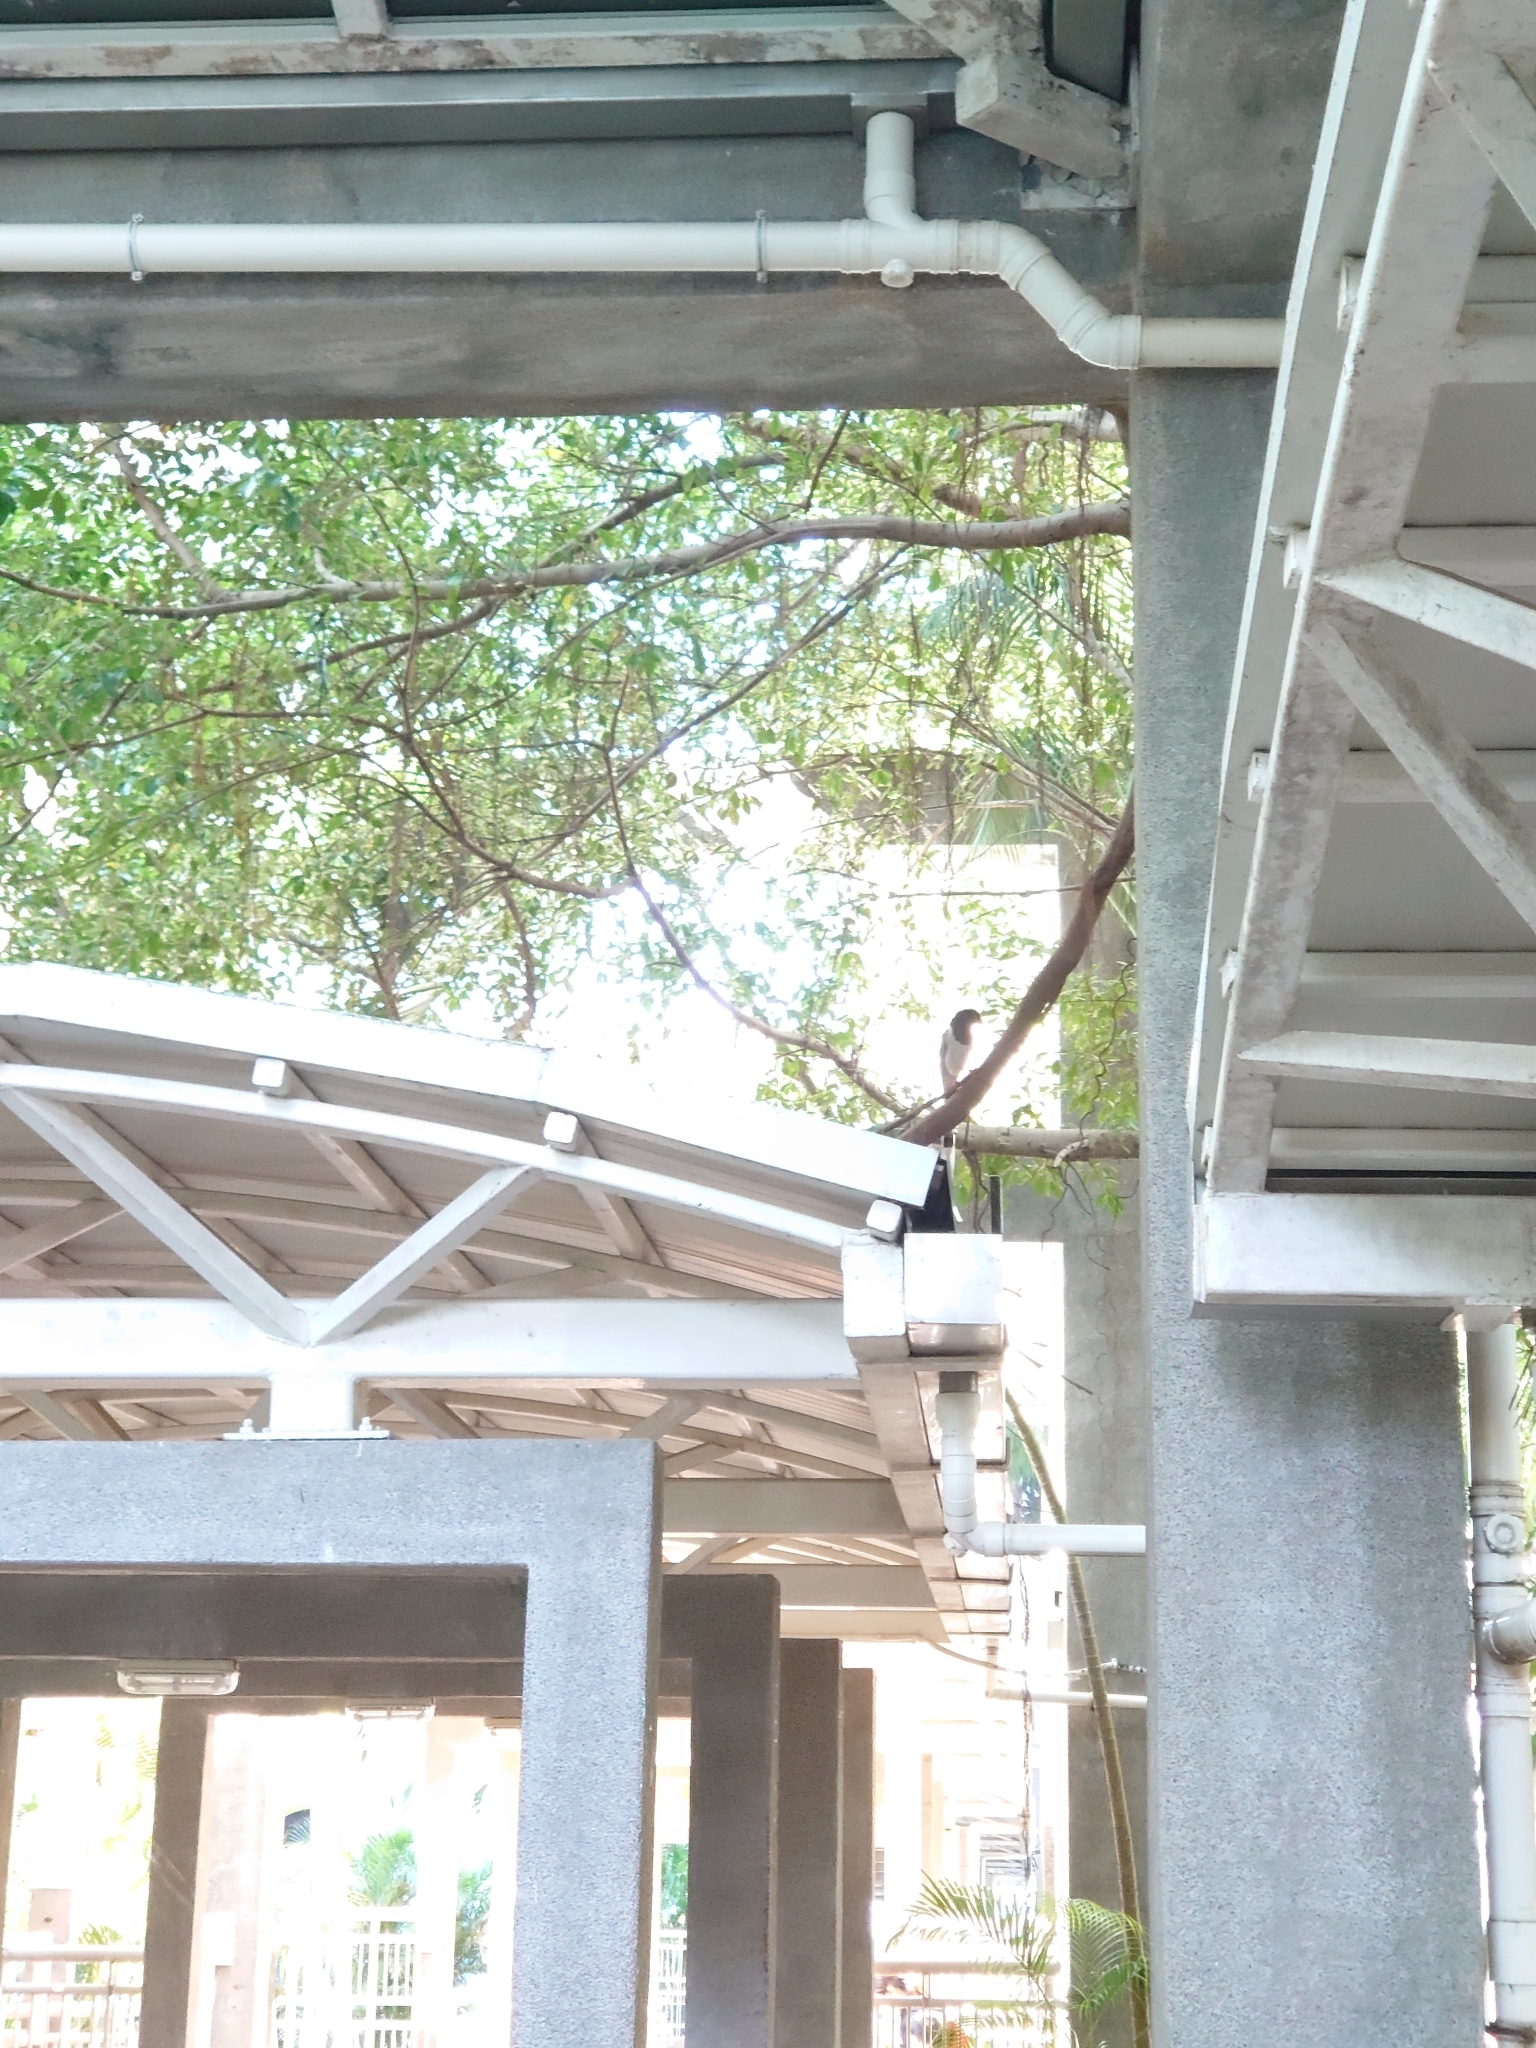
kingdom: Animalia
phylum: Chordata
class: Aves
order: Passeriformes
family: Corvidae
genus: Urocissa
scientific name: Urocissa erythroryncha
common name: Red-billed blue magpie
